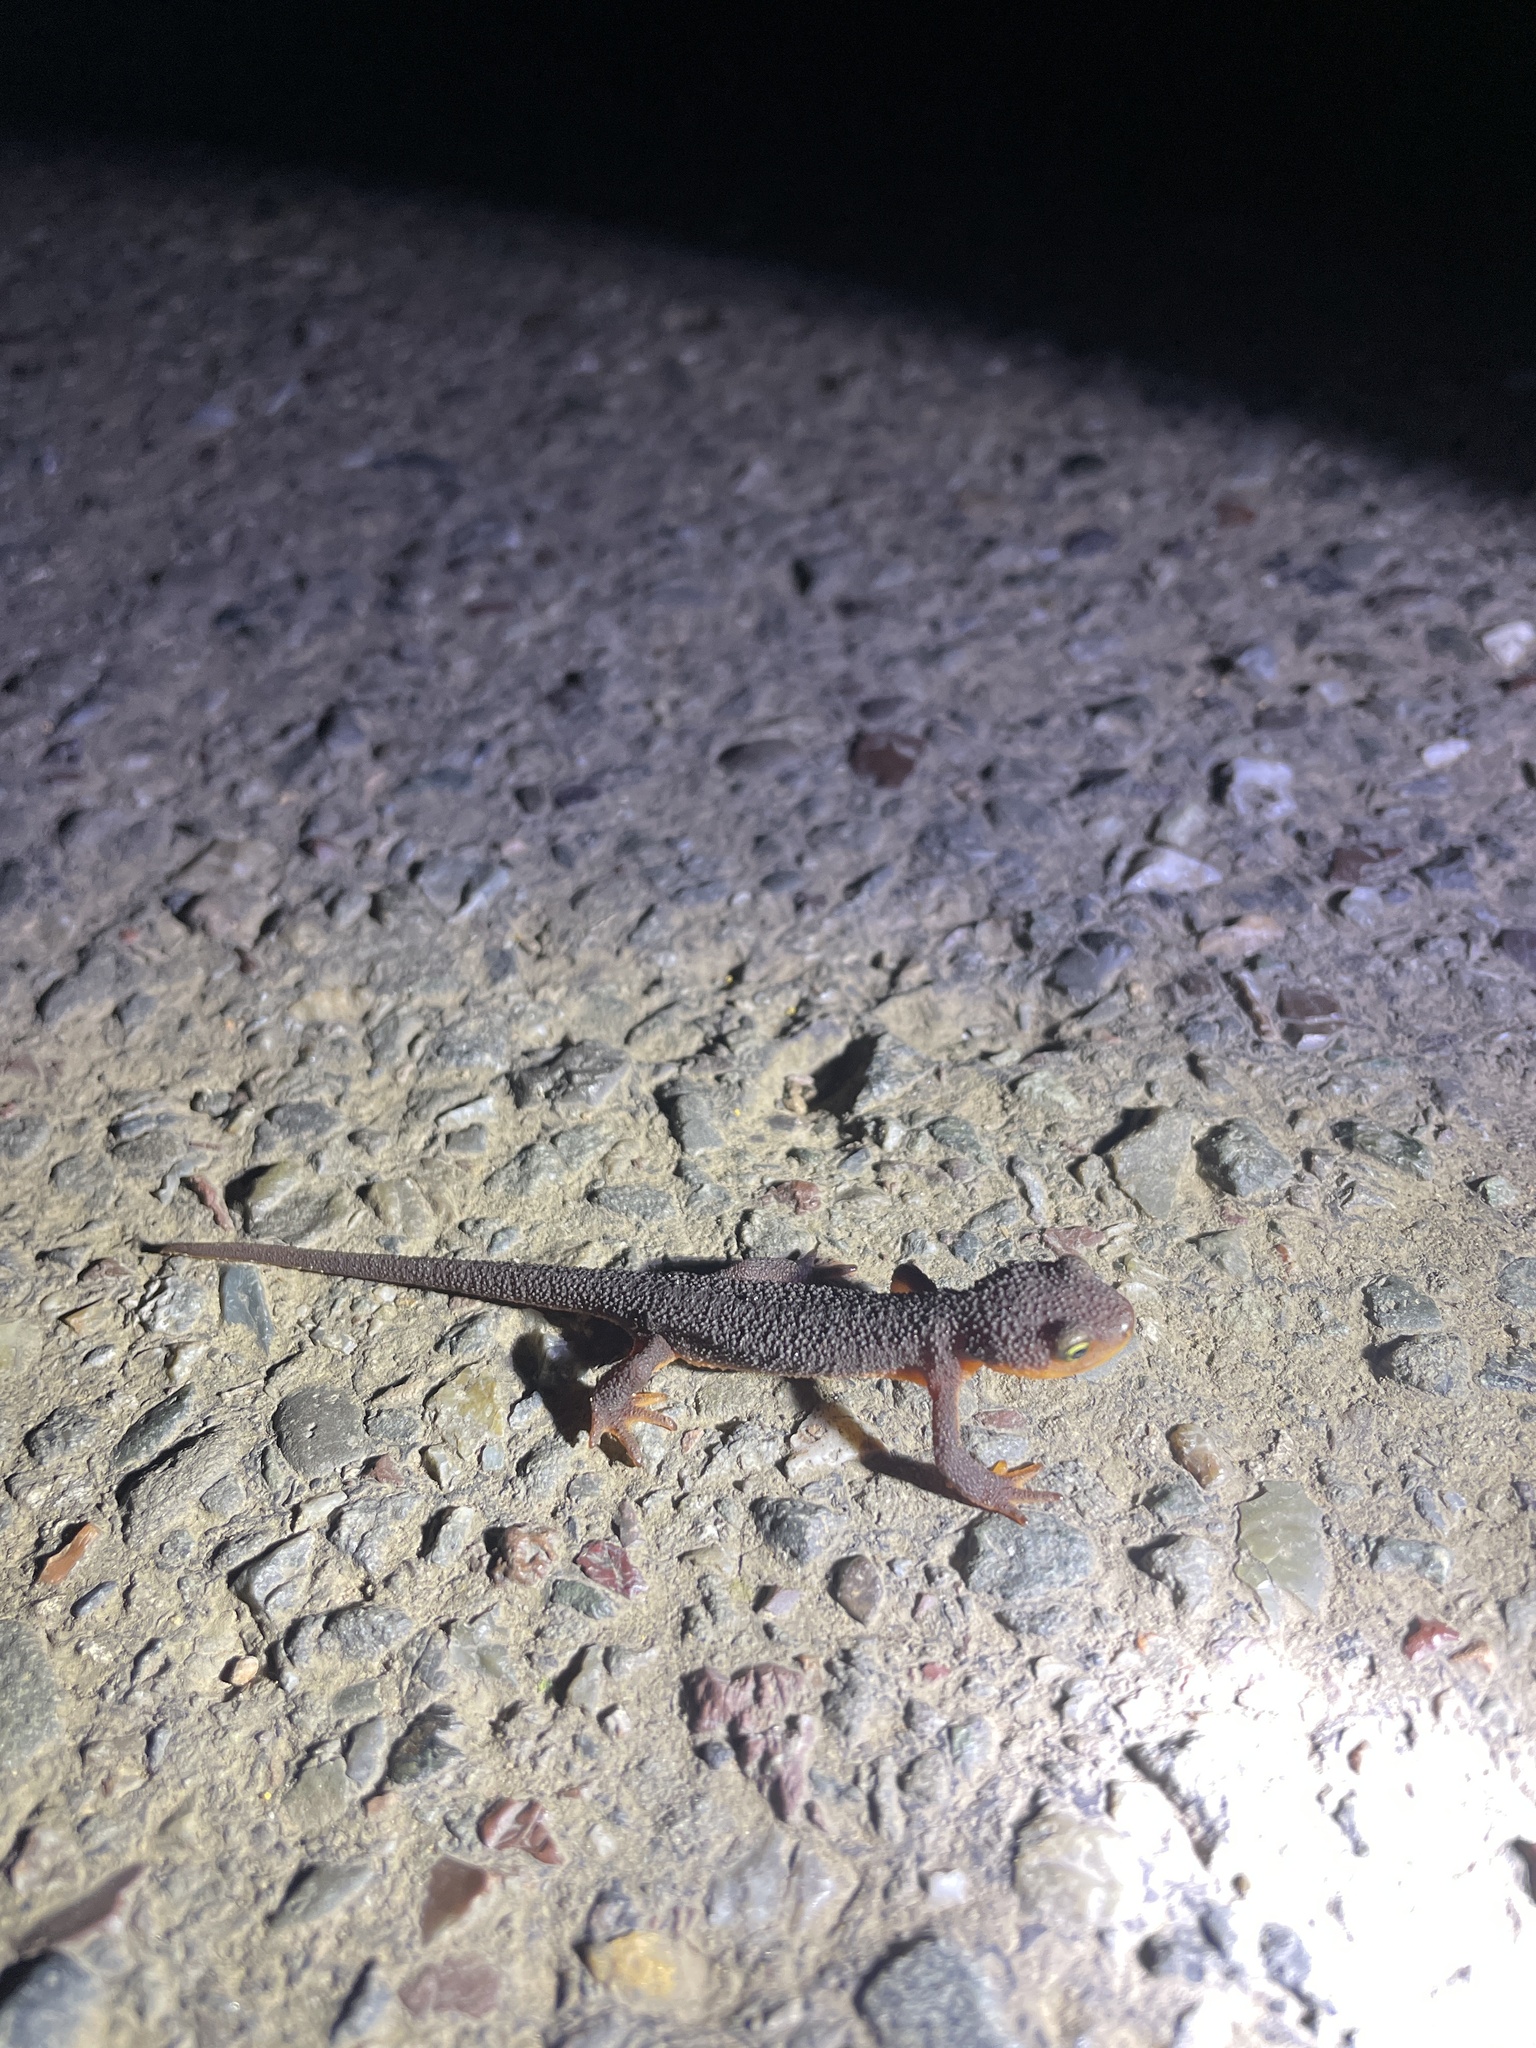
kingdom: Animalia
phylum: Chordata
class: Amphibia
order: Caudata
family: Salamandridae
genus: Taricha
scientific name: Taricha torosa
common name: California newt
